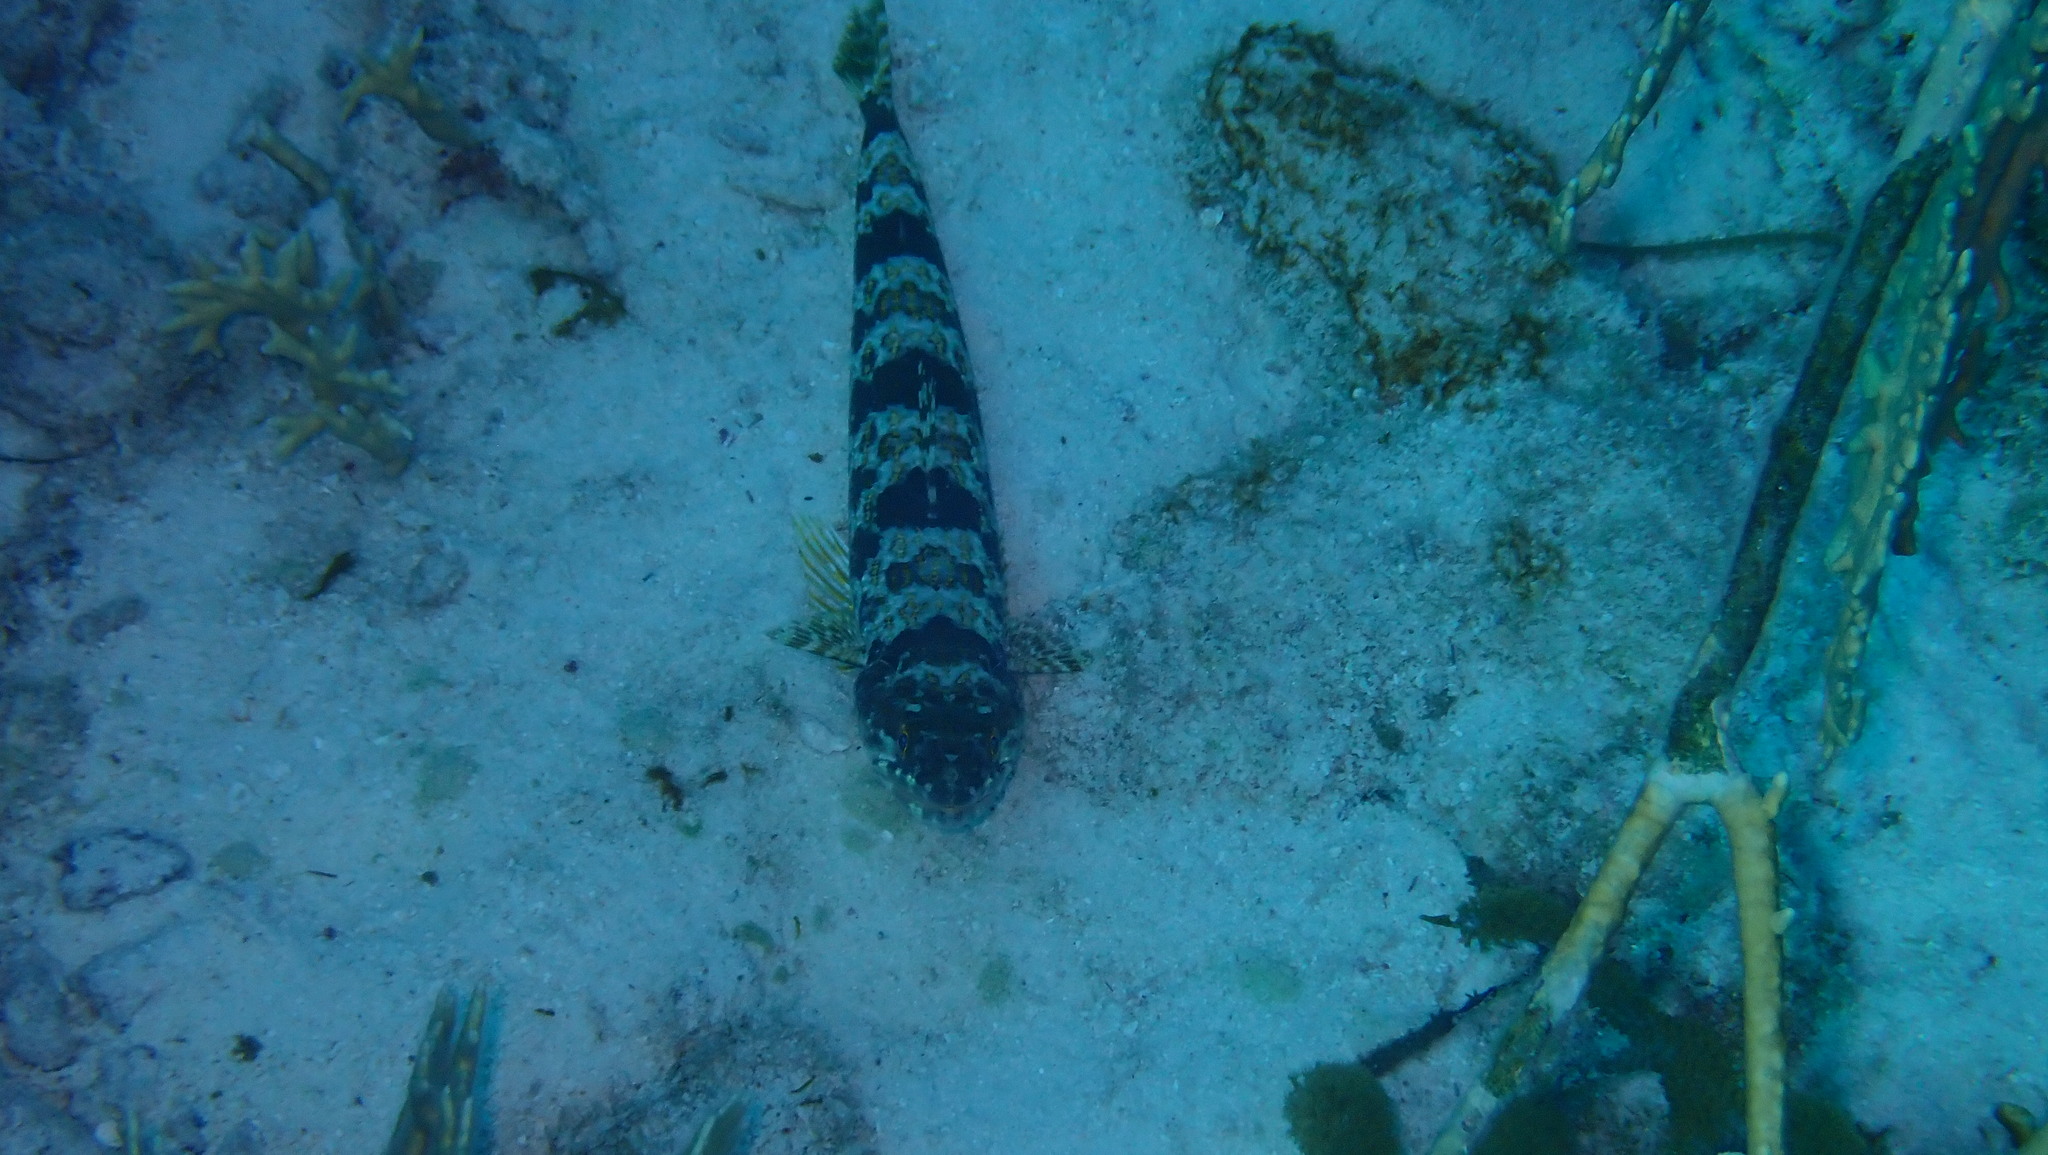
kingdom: Animalia
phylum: Chordata
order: Aulopiformes
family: Synodontidae
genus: Synodus
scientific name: Synodus intermedius
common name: Sand diver
